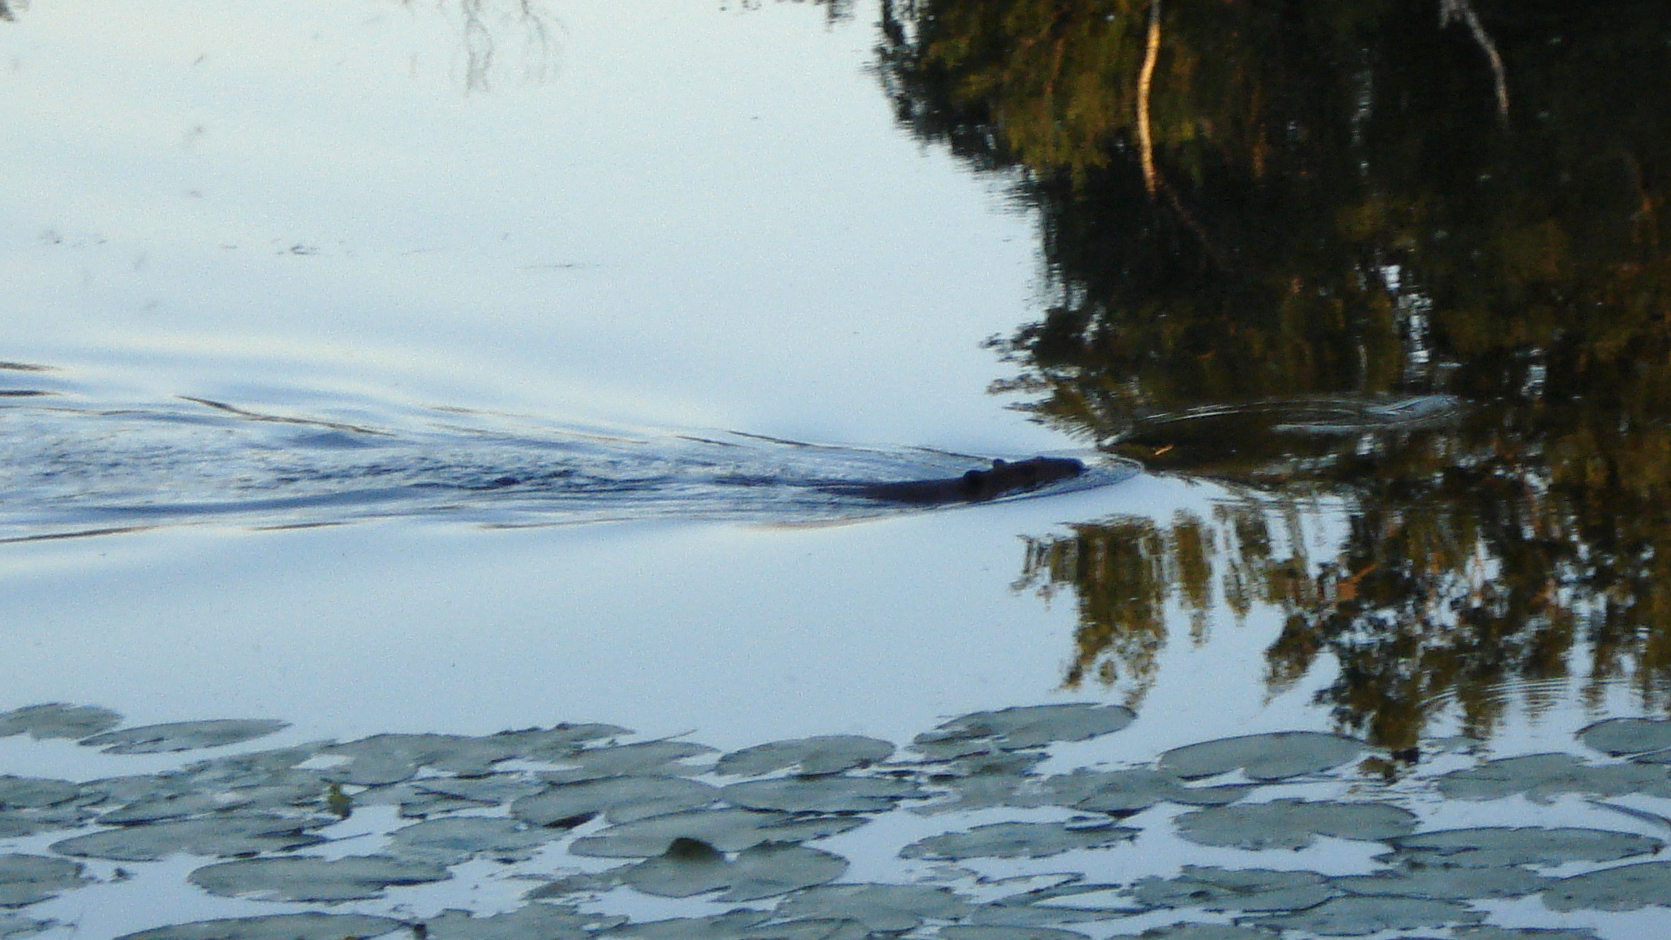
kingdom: Animalia
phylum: Chordata
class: Mammalia
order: Rodentia
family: Castoridae
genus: Castor
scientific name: Castor canadensis
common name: American beaver
